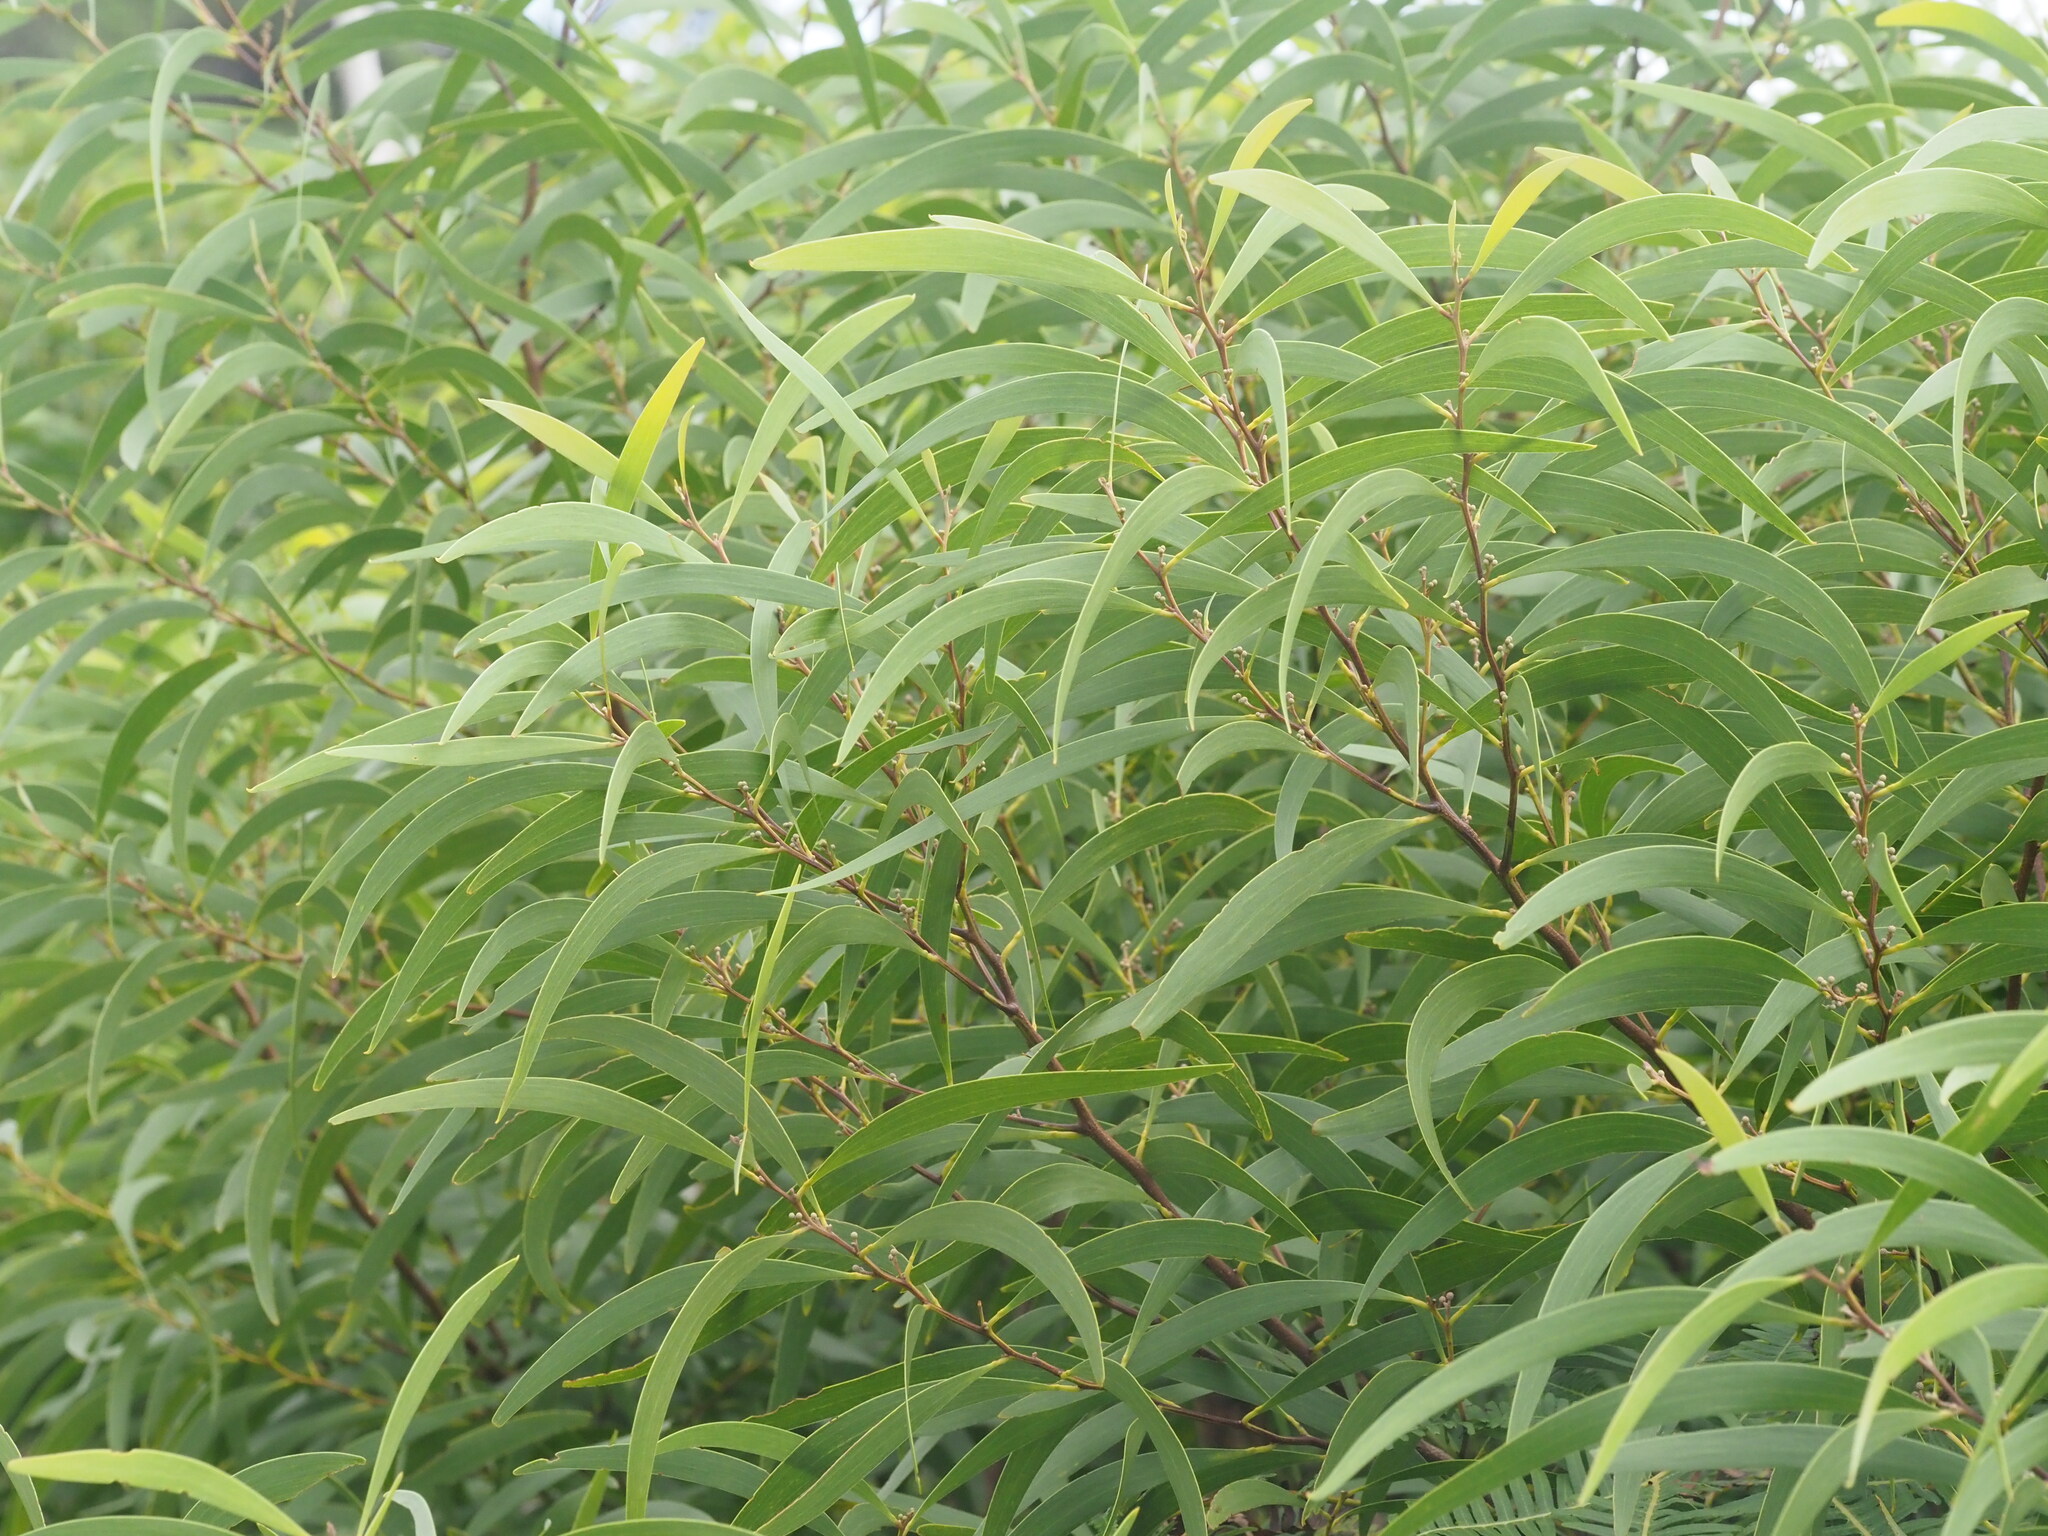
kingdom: Plantae
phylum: Tracheophyta
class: Magnoliopsida
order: Fabales
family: Fabaceae
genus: Acacia
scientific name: Acacia koa
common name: Gray koa
